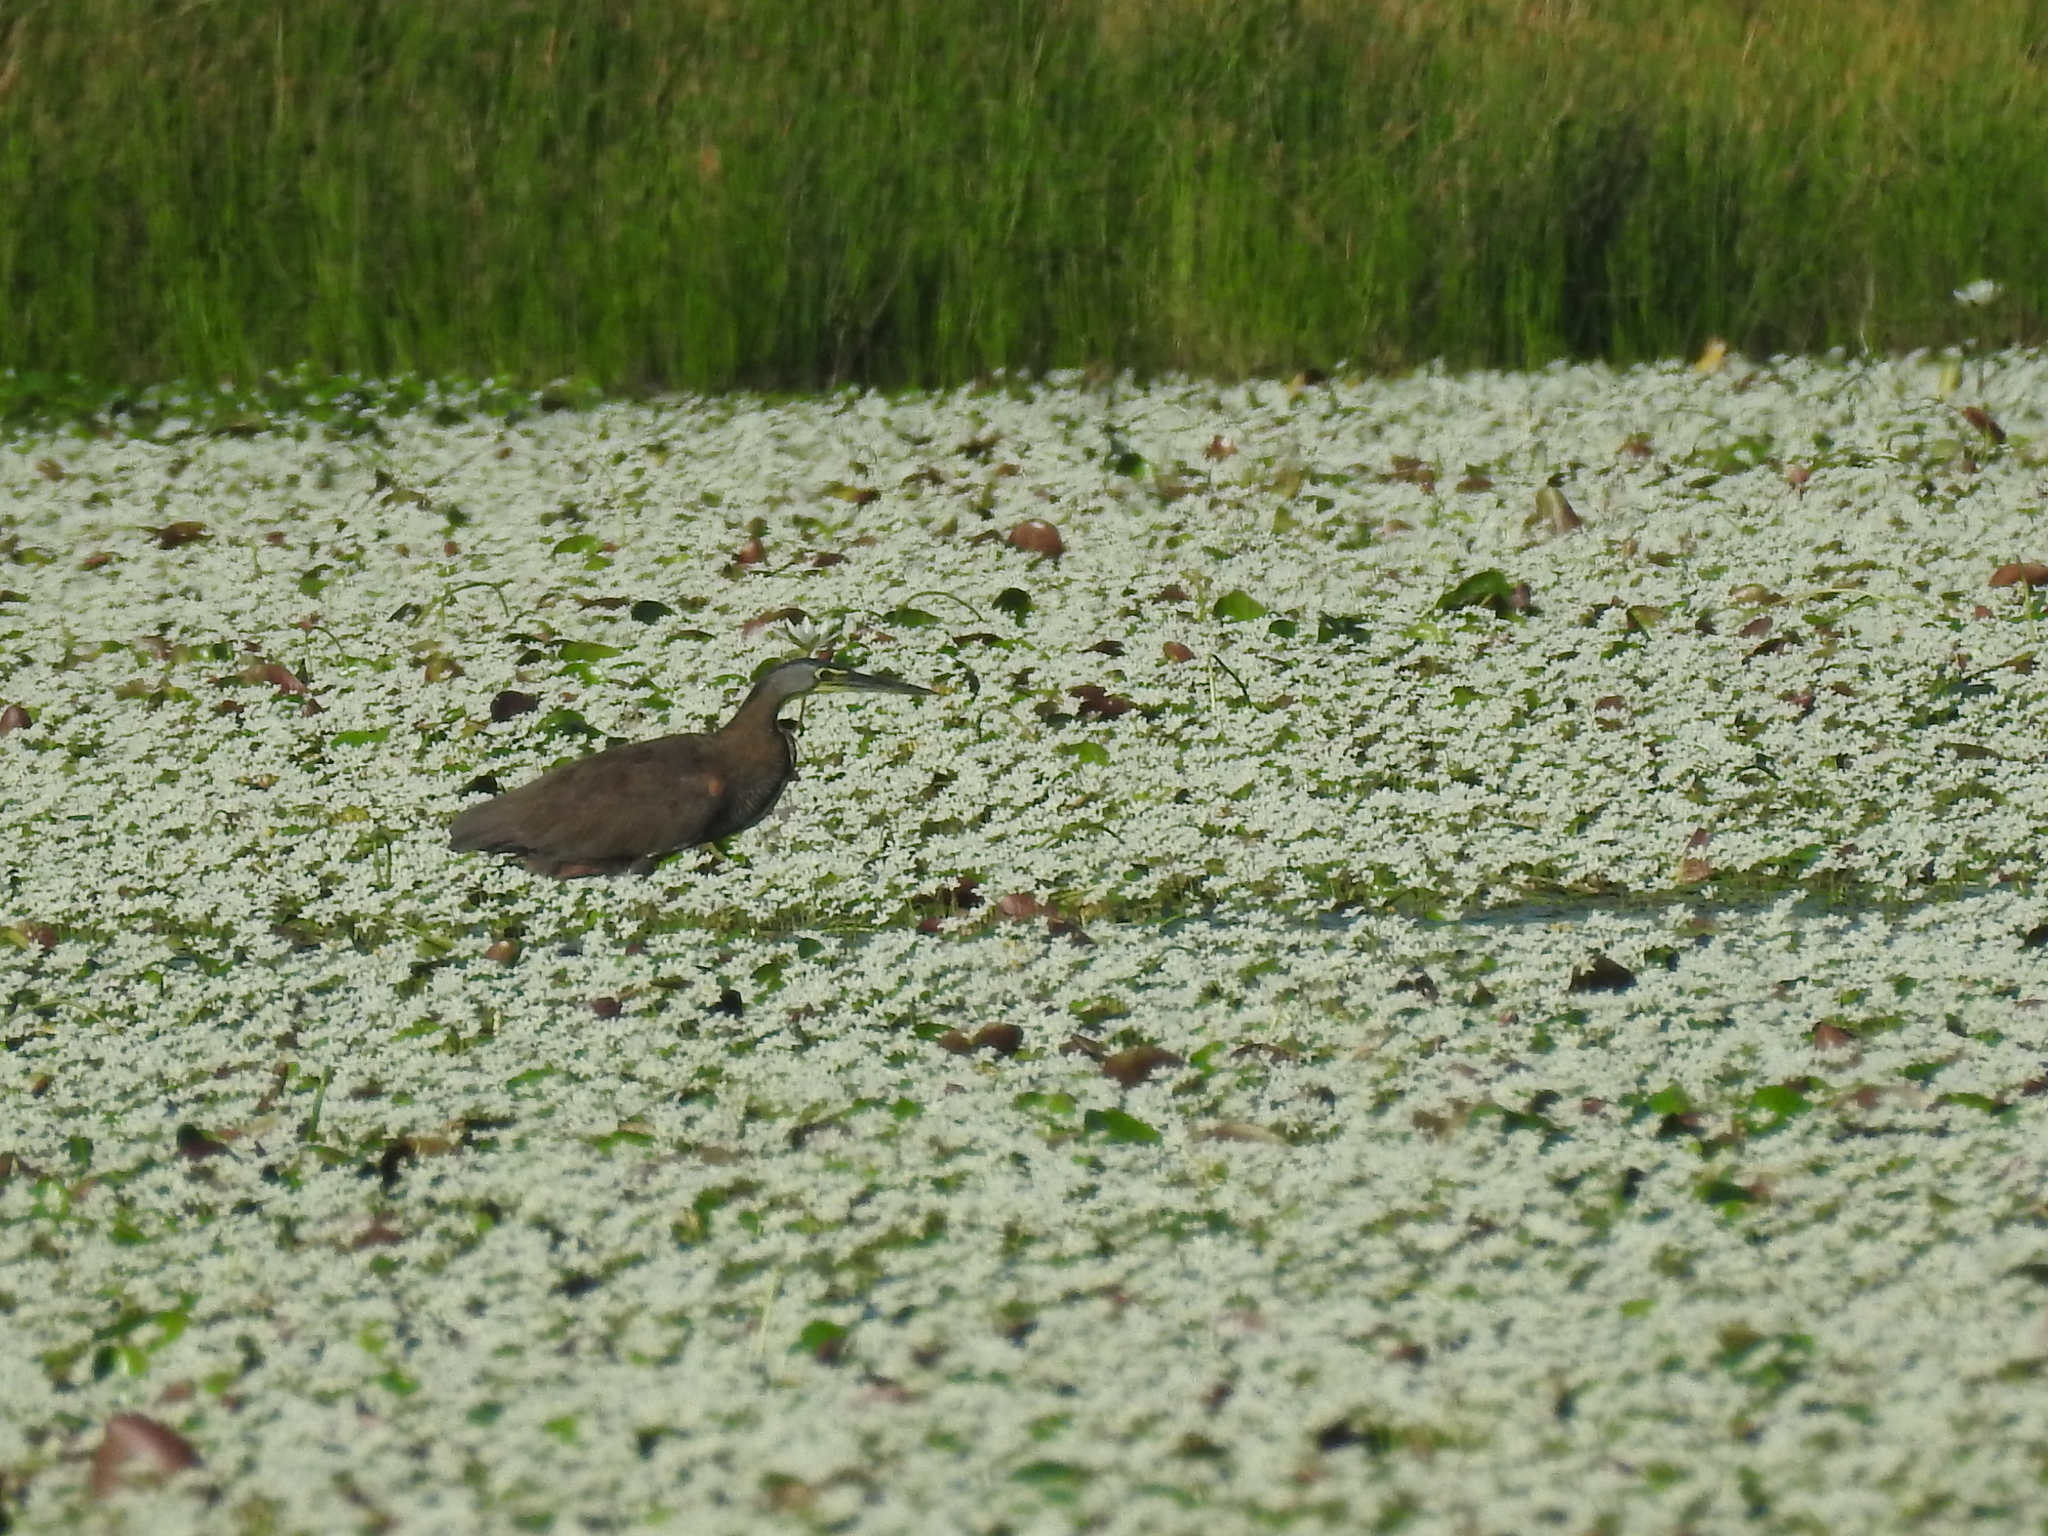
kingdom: Animalia
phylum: Chordata
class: Aves
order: Pelecaniformes
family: Ardeidae
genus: Tigrisoma
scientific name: Tigrisoma mexicanum
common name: Bare-throated tiger-heron
